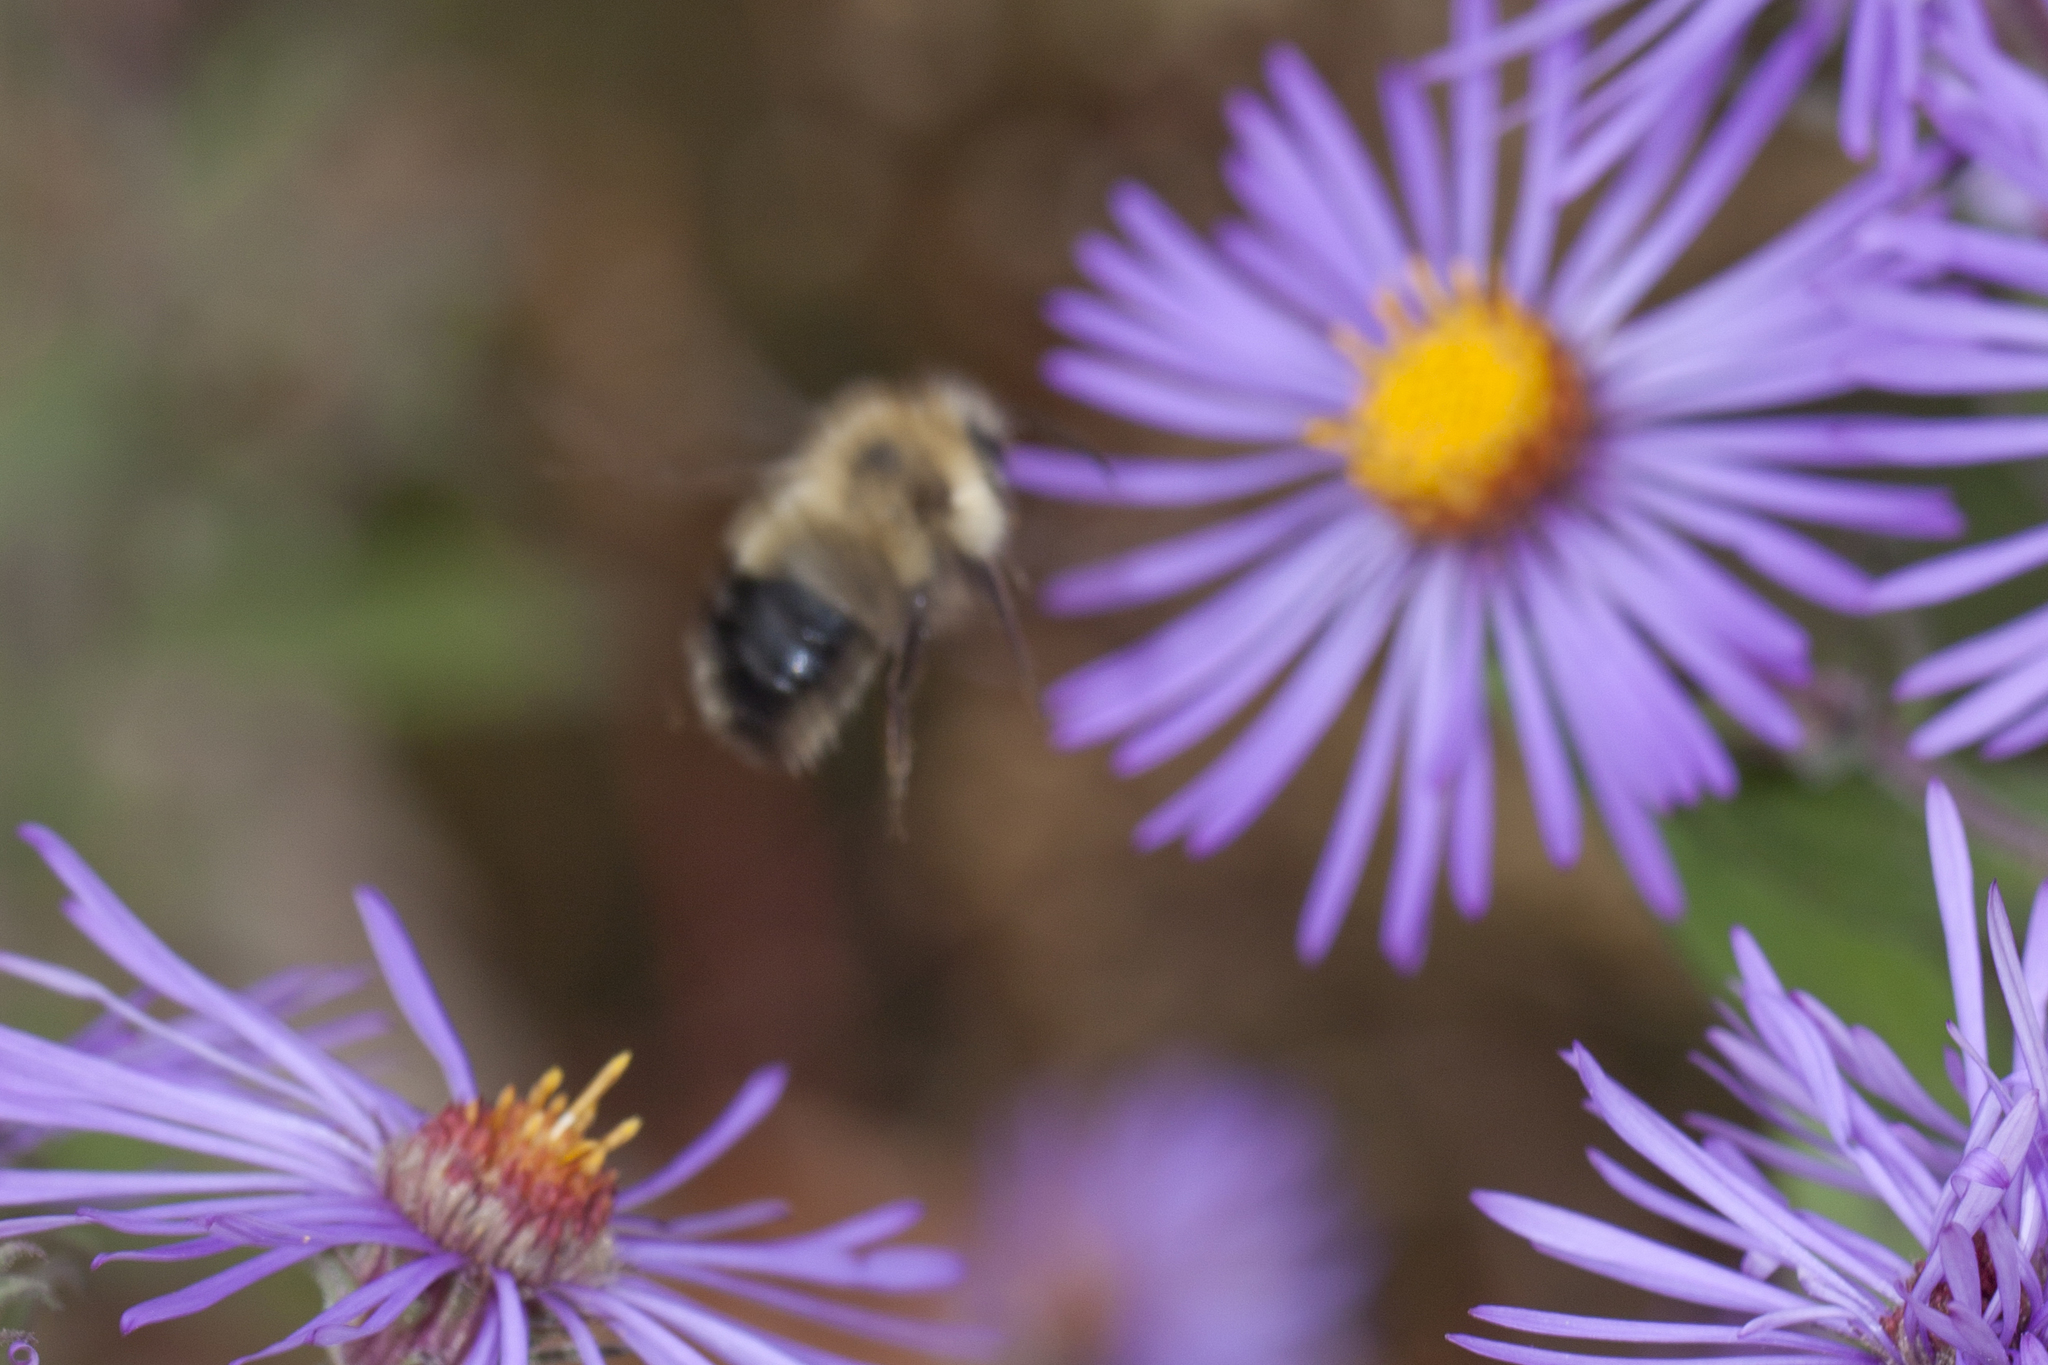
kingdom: Animalia
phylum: Arthropoda
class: Insecta
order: Hymenoptera
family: Apidae
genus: Bombus
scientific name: Bombus vagans
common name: Half-black bumble bee
